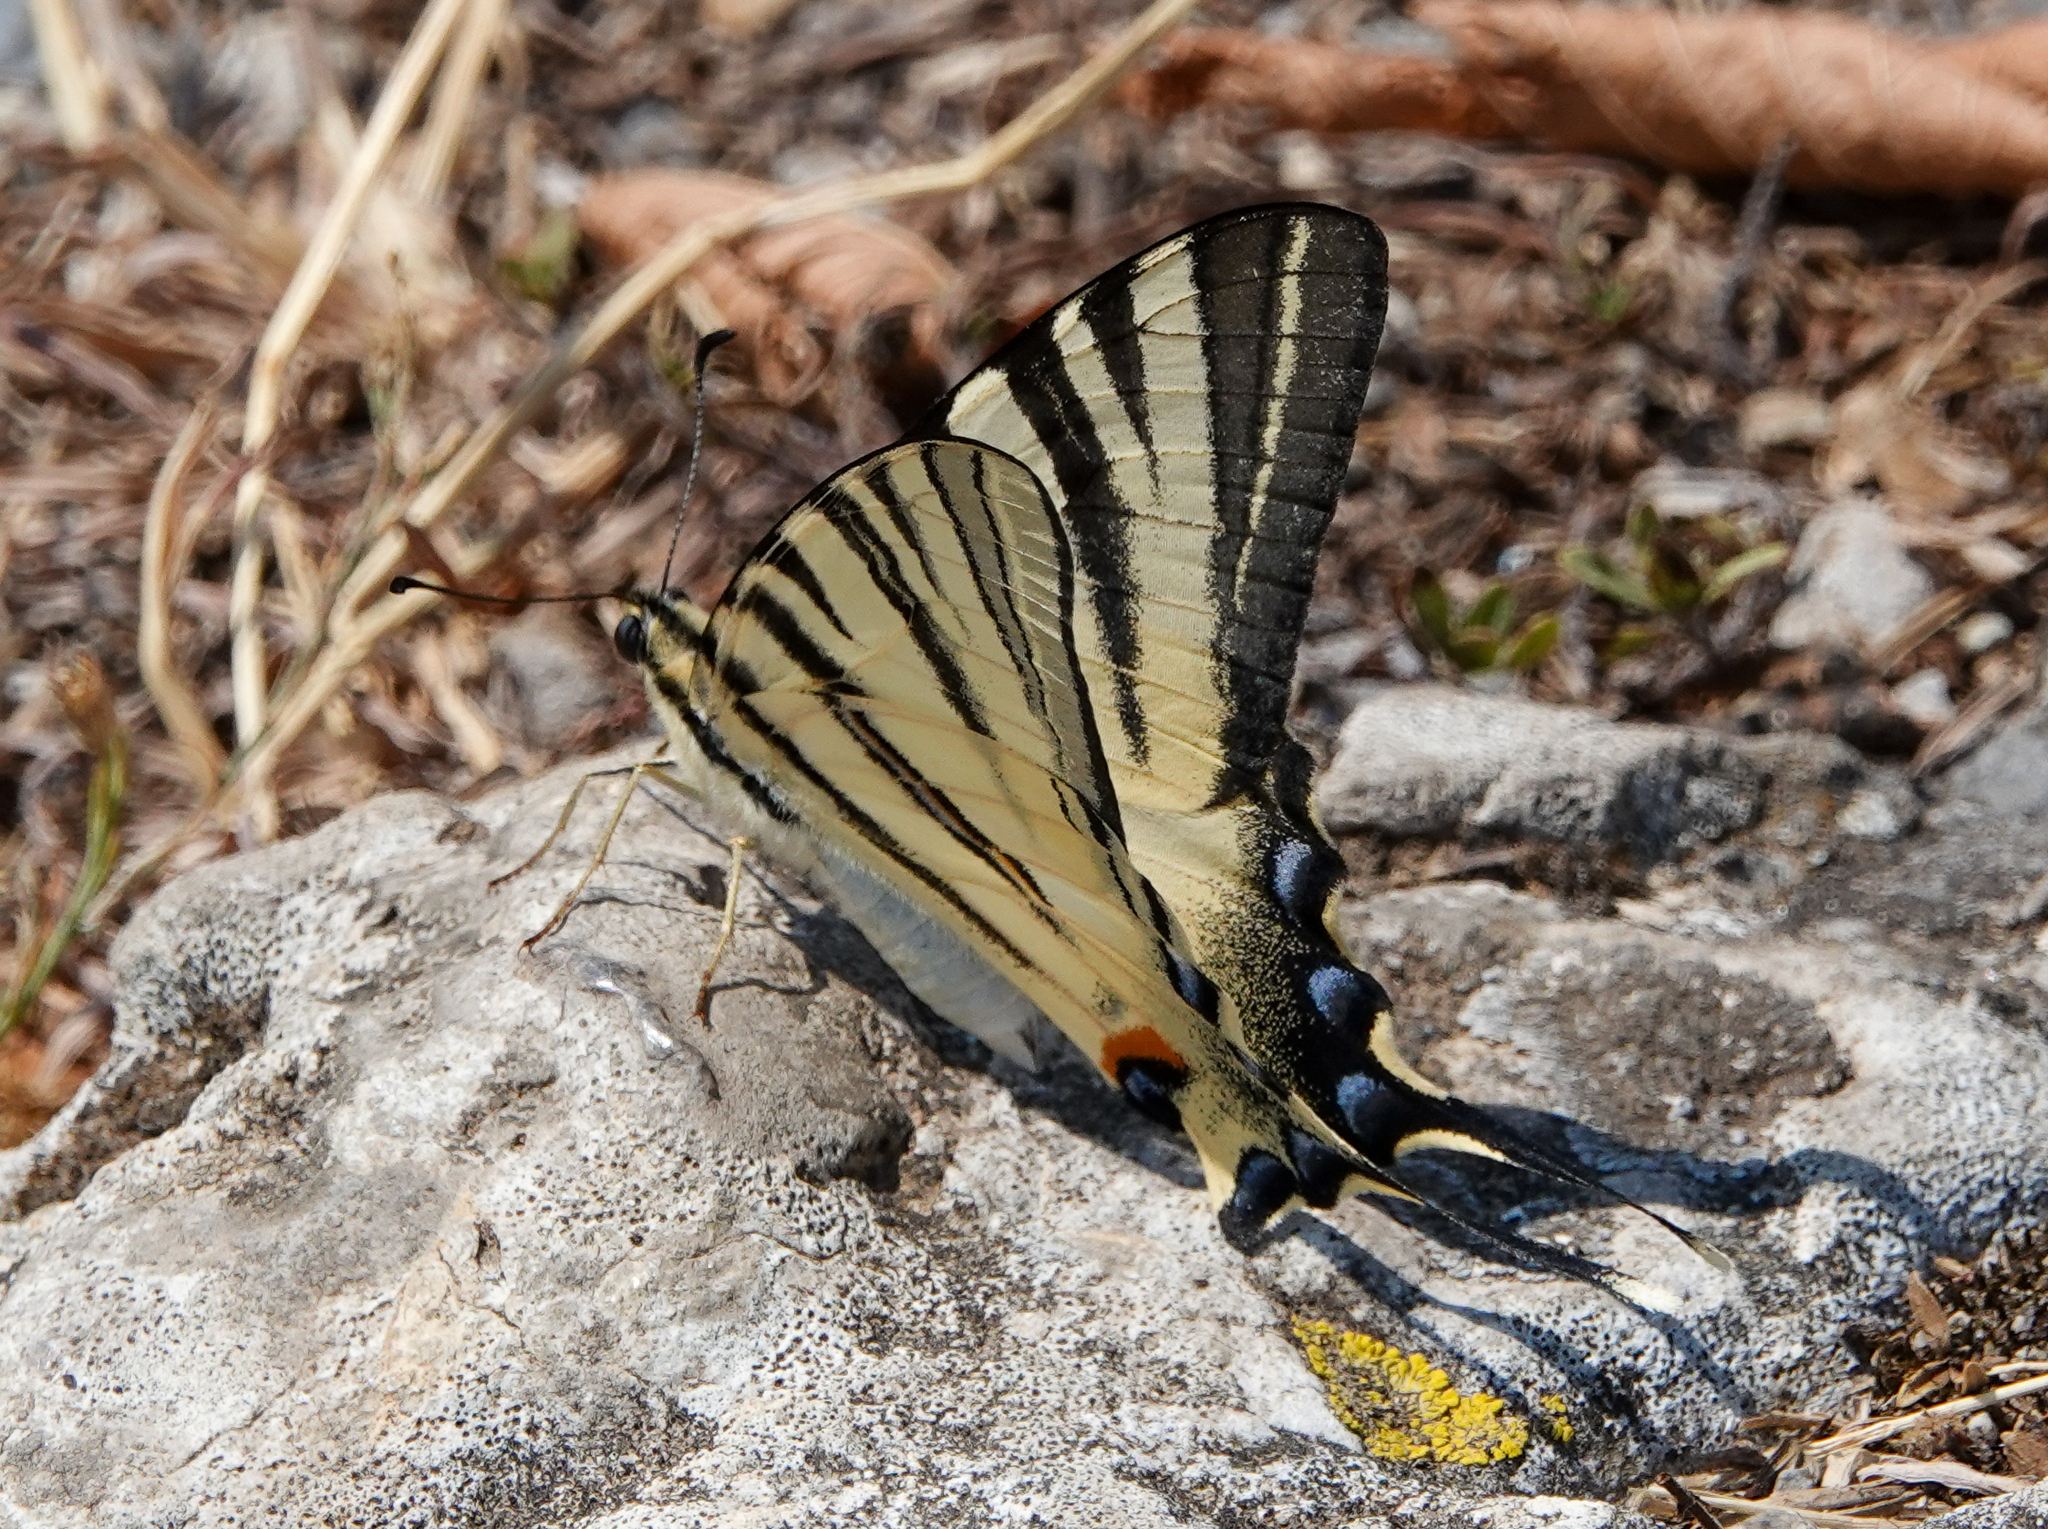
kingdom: Animalia
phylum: Arthropoda
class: Insecta
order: Lepidoptera
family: Papilionidae
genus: Iphiclides
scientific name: Iphiclides podalirius
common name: Scarce swallowtail
